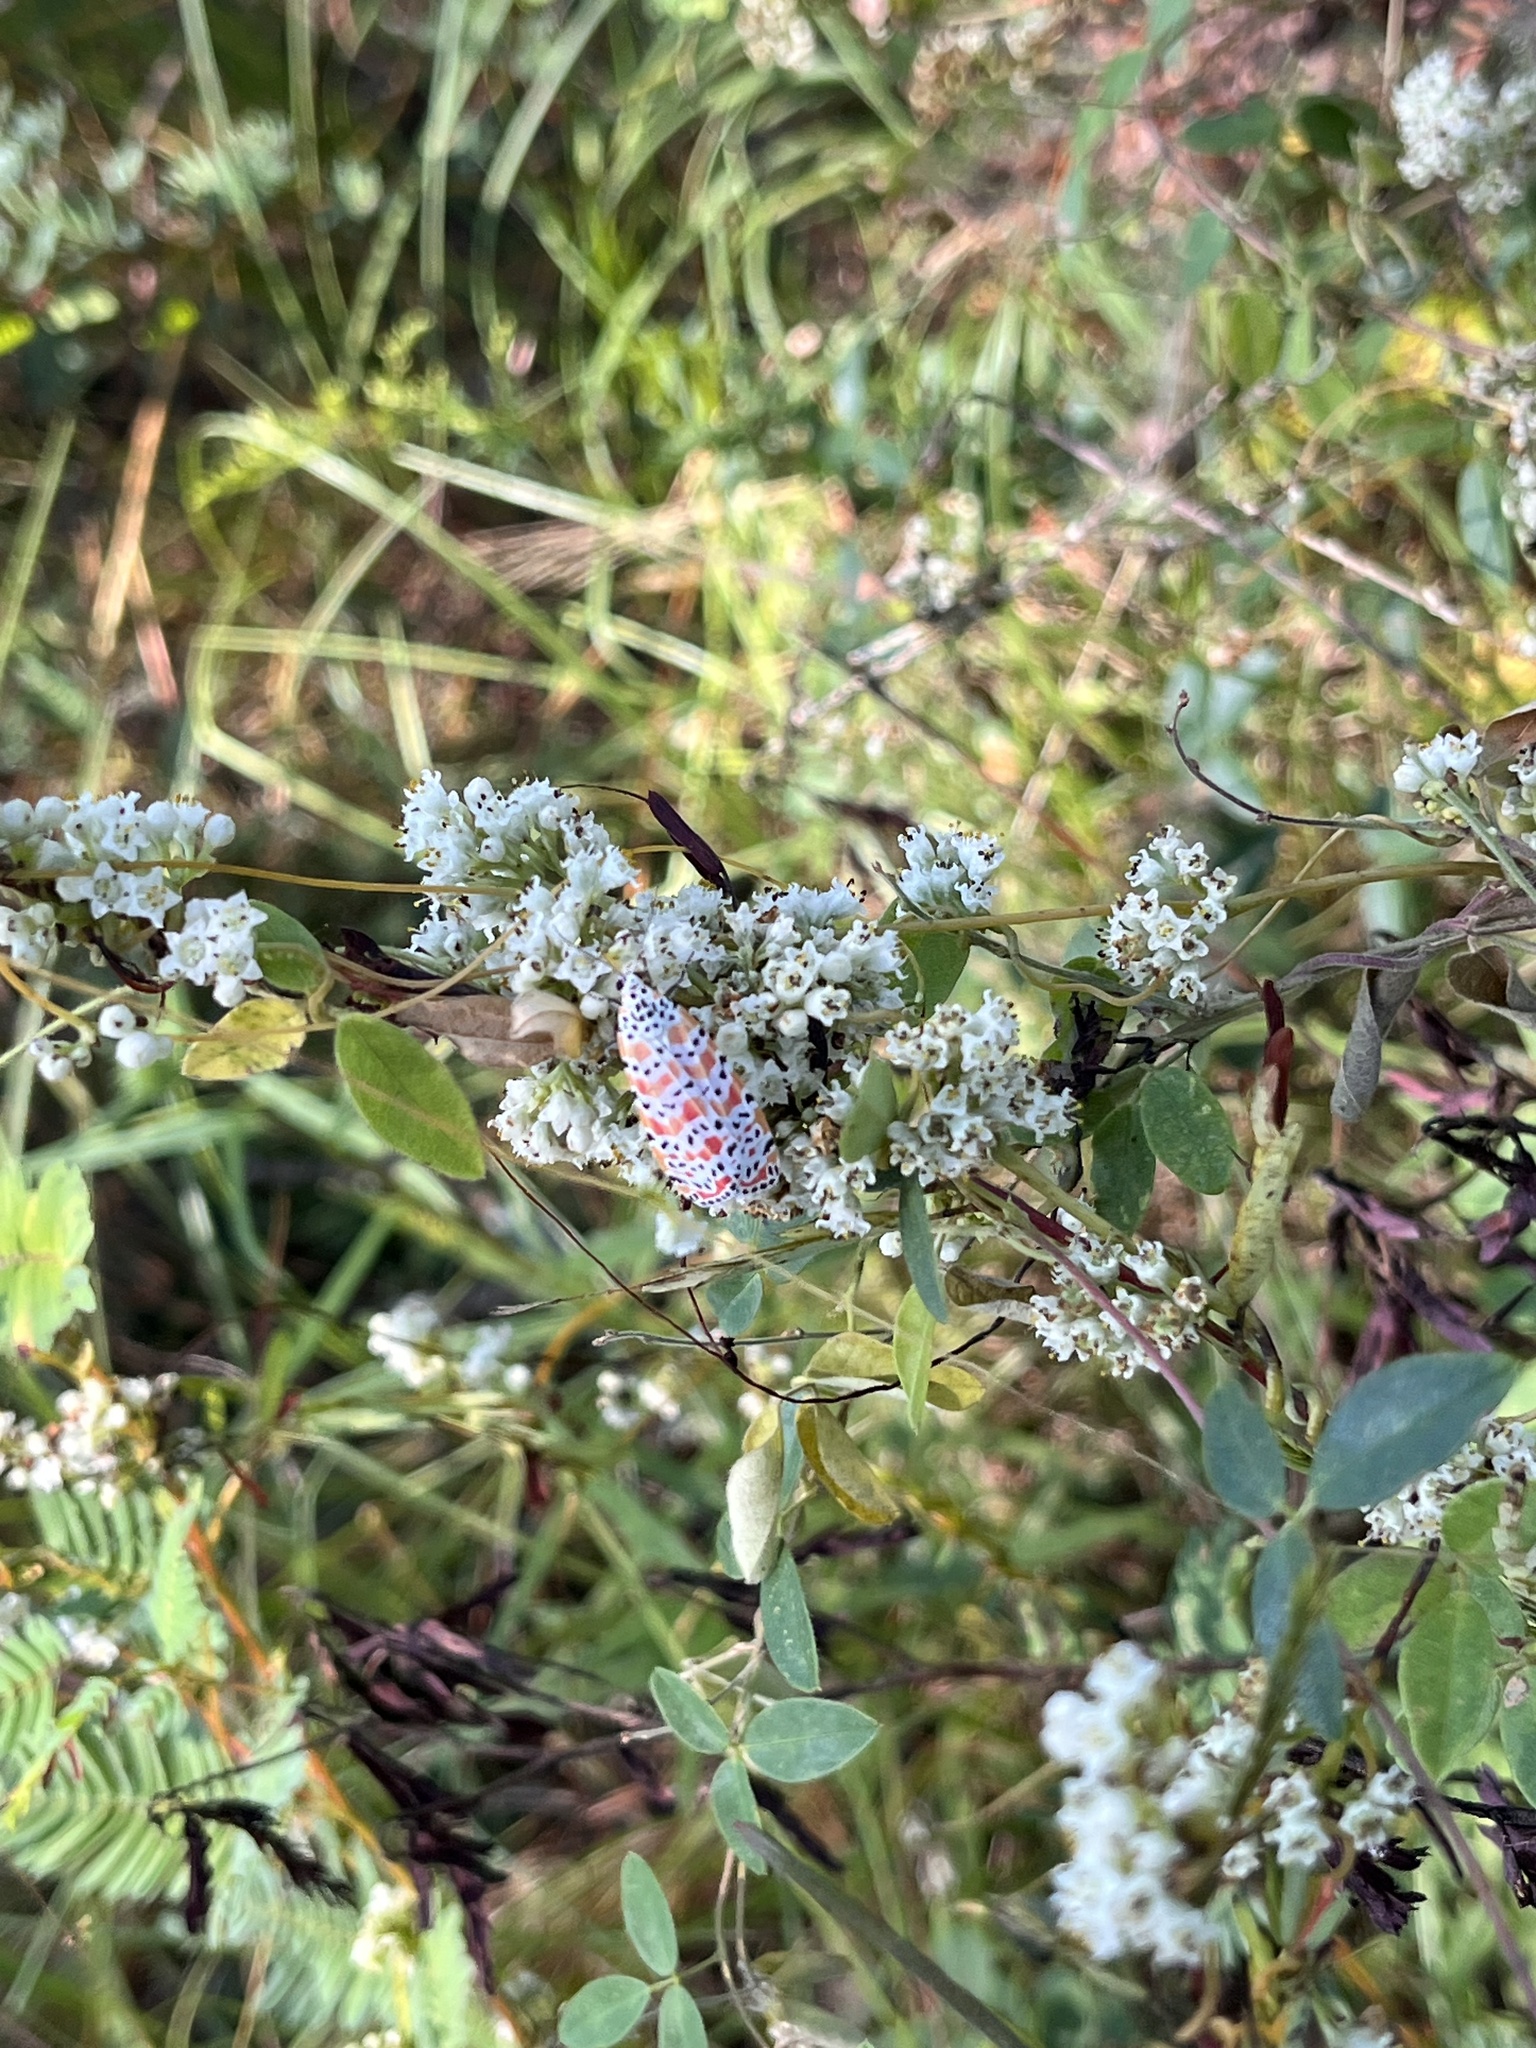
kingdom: Animalia
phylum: Arthropoda
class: Insecta
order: Lepidoptera
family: Erebidae
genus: Utetheisa
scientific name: Utetheisa ornatrix
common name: Beautiful utetheisa
